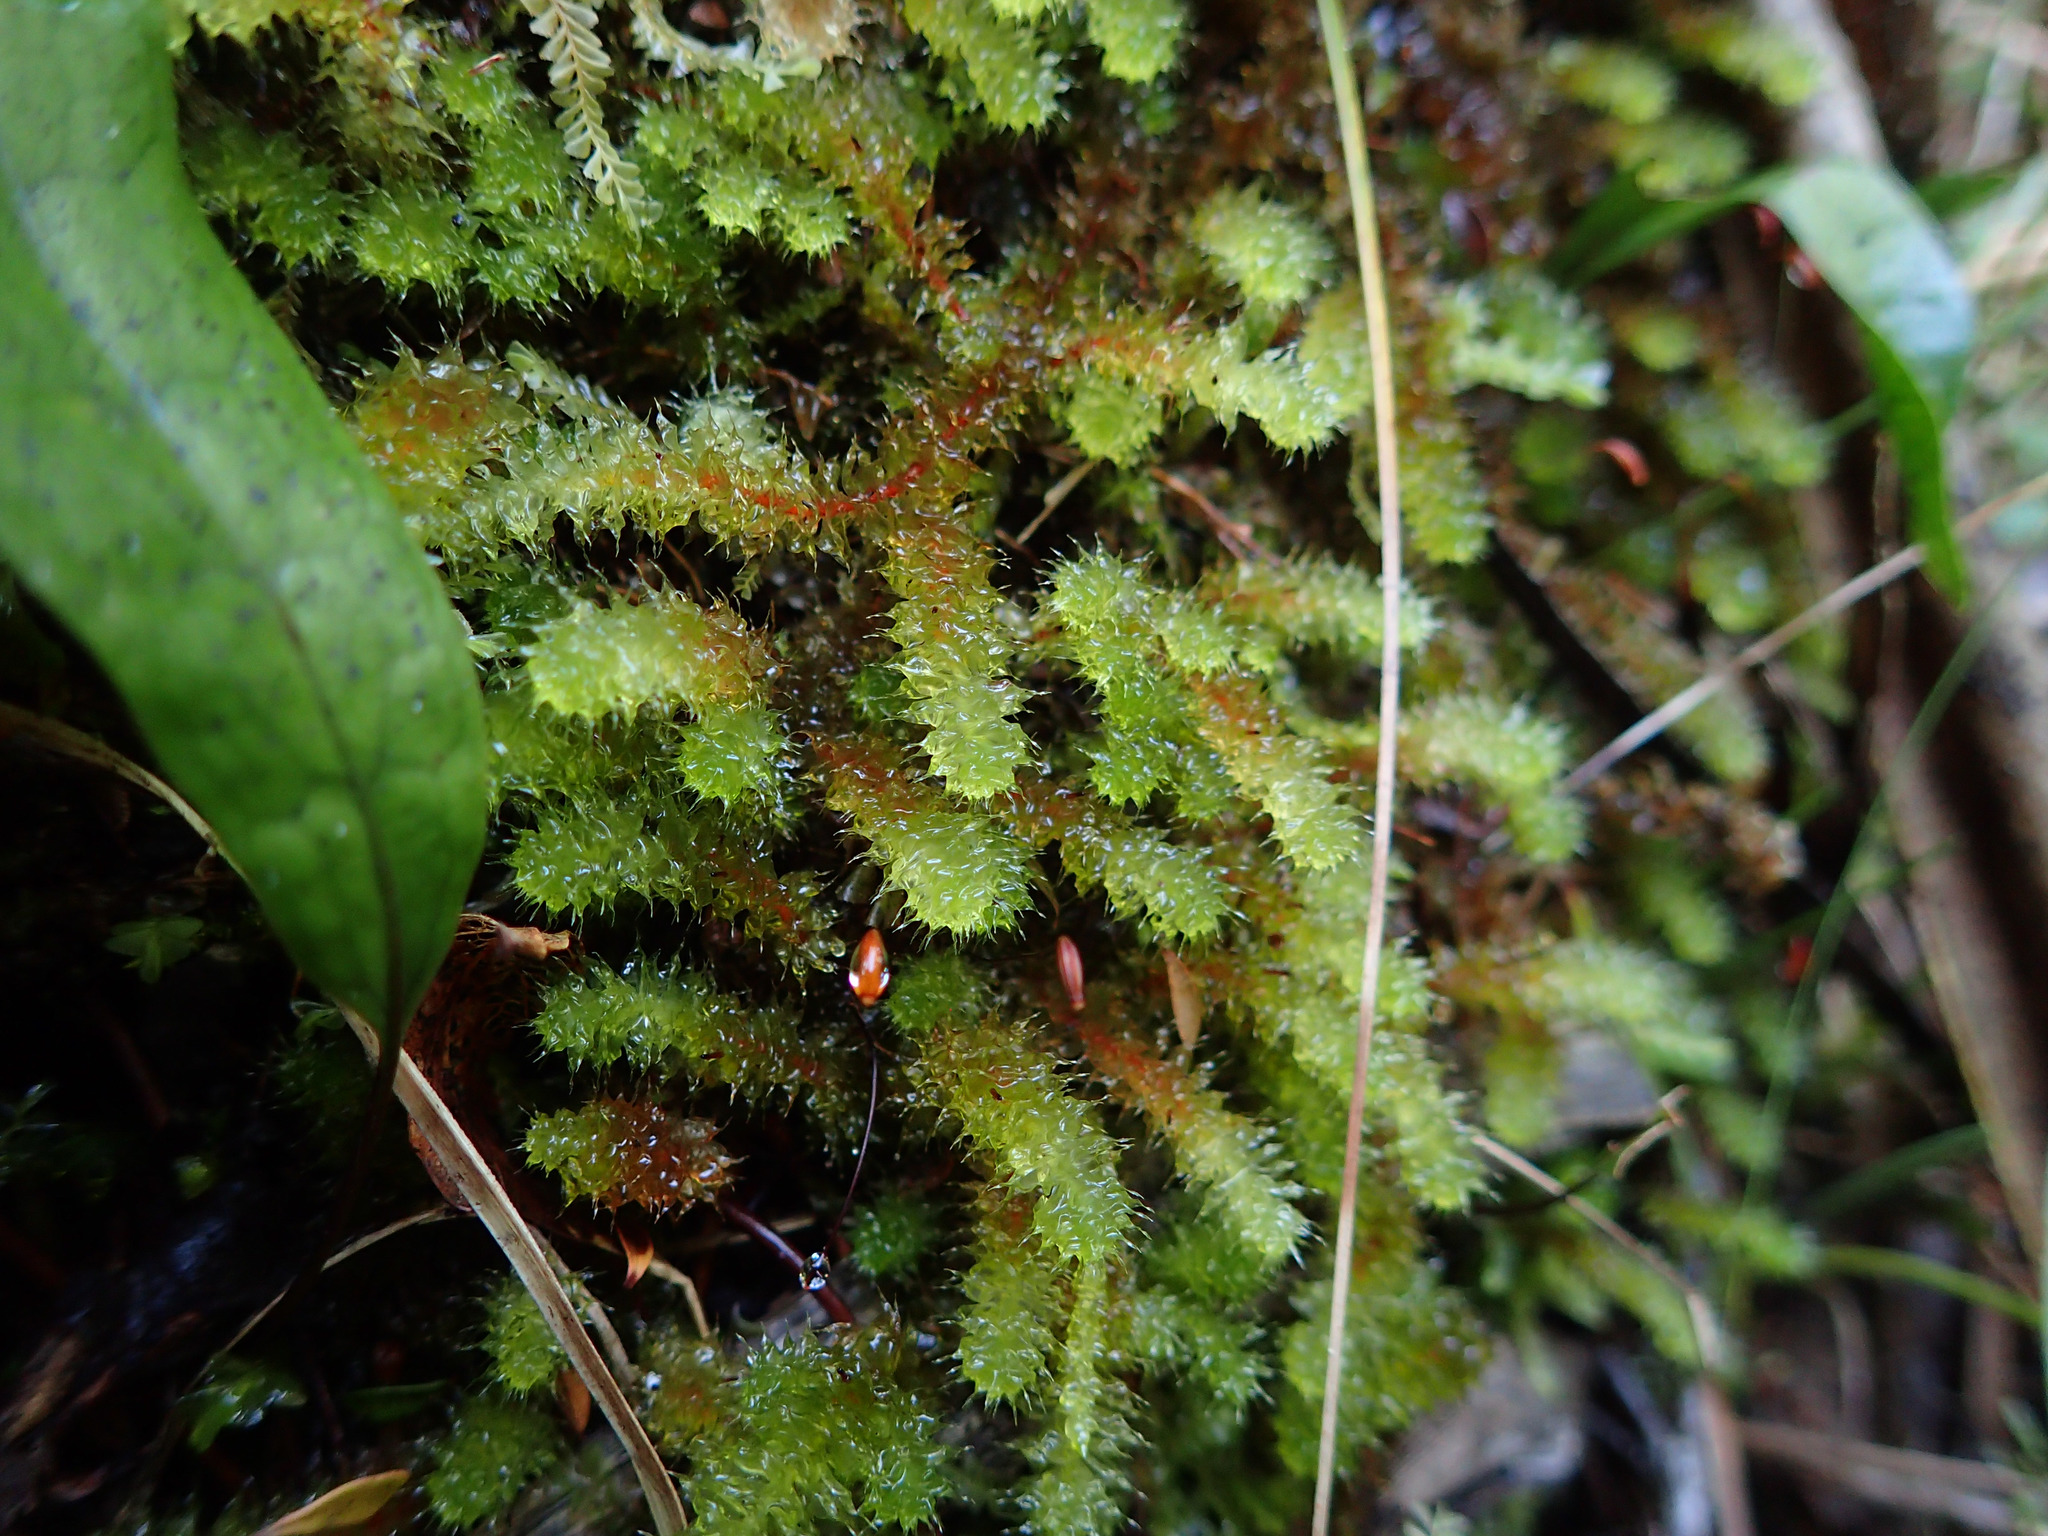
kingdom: Plantae
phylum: Bryophyta
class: Bryopsida
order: Ptychomniales
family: Ptychomniaceae
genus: Ptychomnion
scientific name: Ptychomnion aciculare
